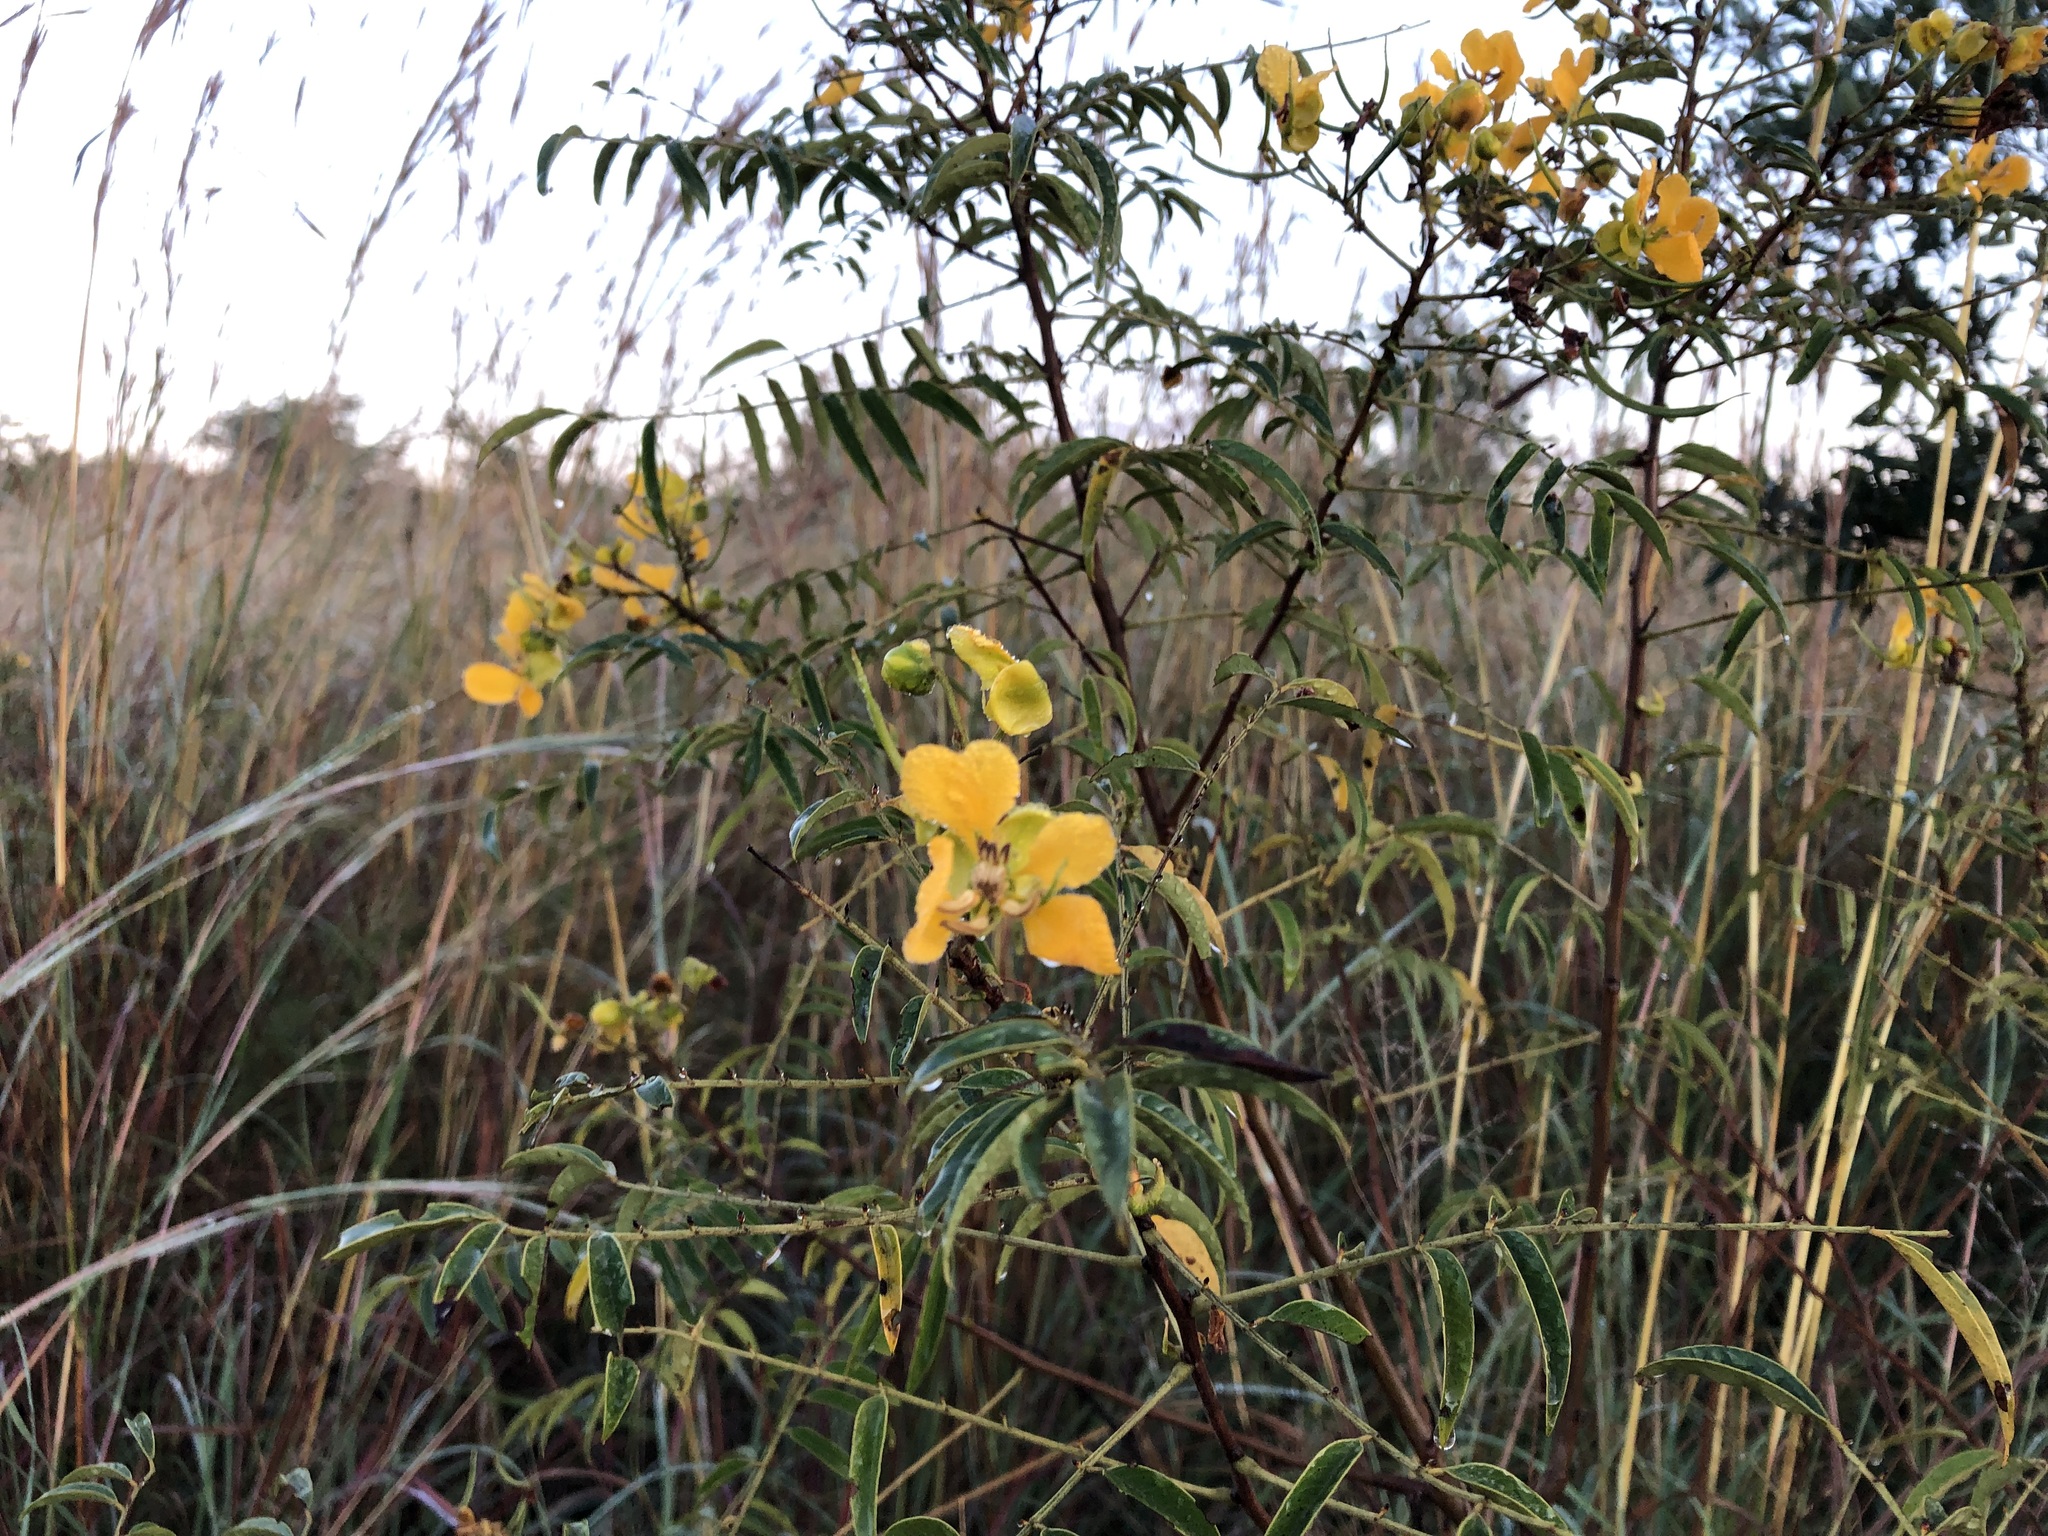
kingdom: Plantae
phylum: Tracheophyta
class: Magnoliopsida
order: Fabales
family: Fabaceae
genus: Senna
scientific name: Senna petersiana
